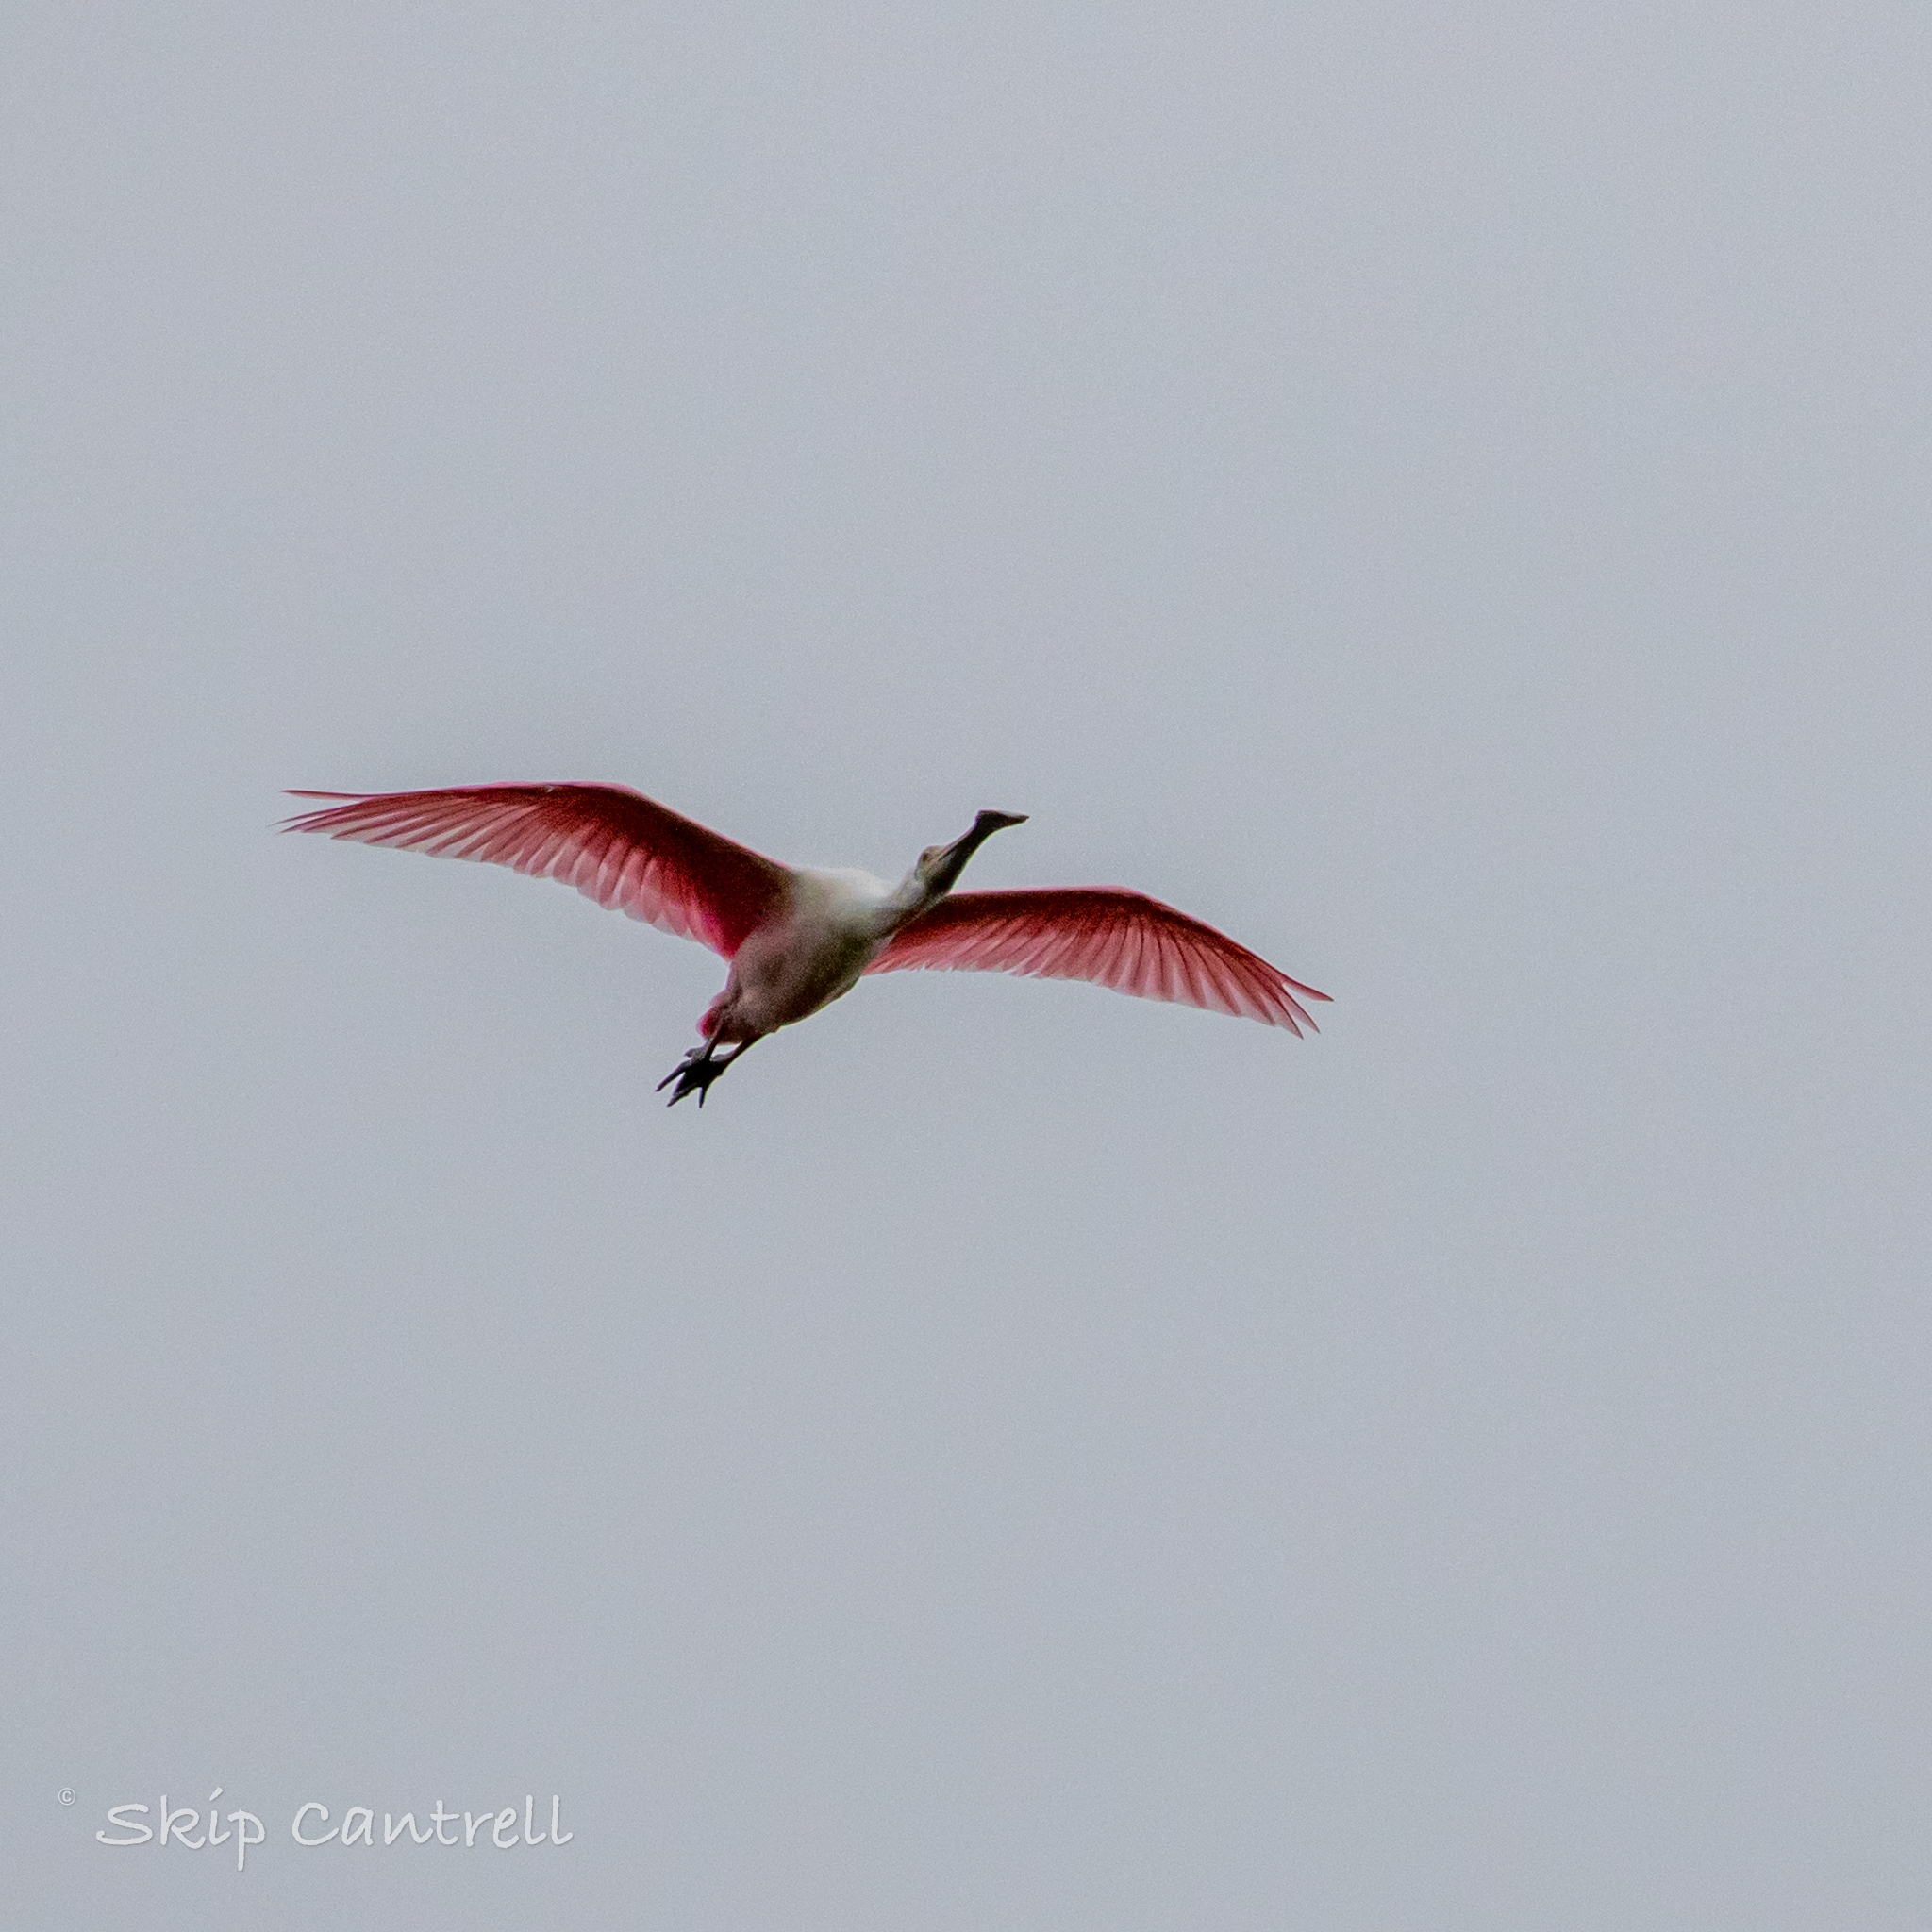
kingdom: Animalia
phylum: Chordata
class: Aves
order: Pelecaniformes
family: Threskiornithidae
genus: Platalea
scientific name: Platalea ajaja
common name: Roseate spoonbill
